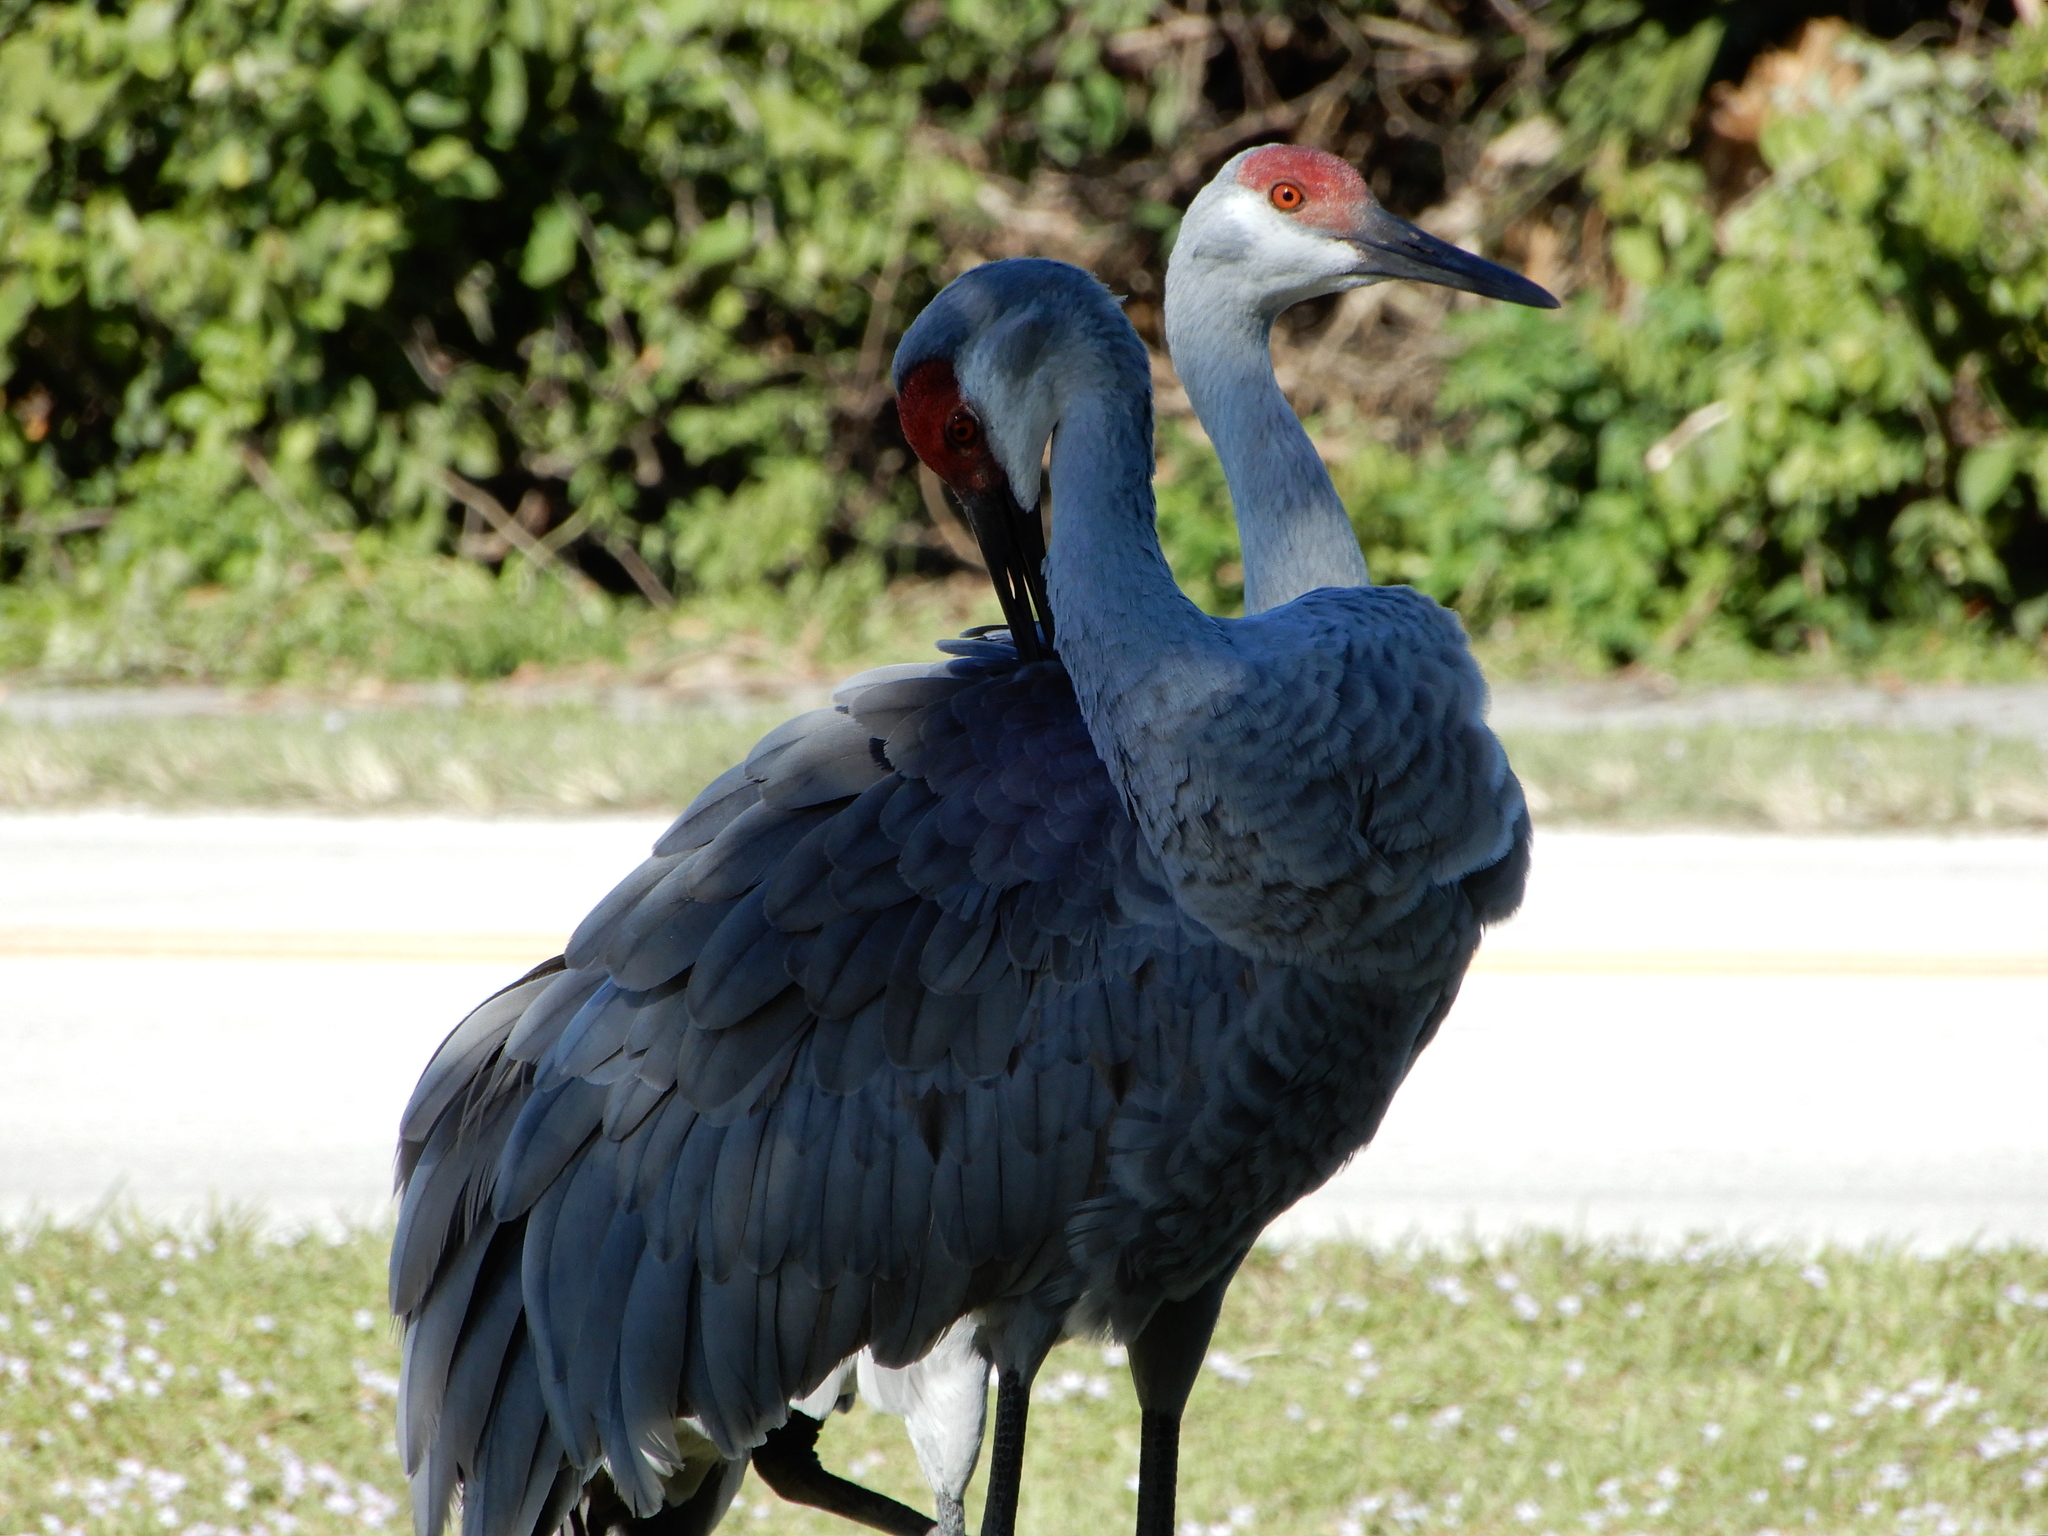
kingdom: Animalia
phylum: Chordata
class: Aves
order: Gruiformes
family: Gruidae
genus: Grus
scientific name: Grus canadensis
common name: Sandhill crane
